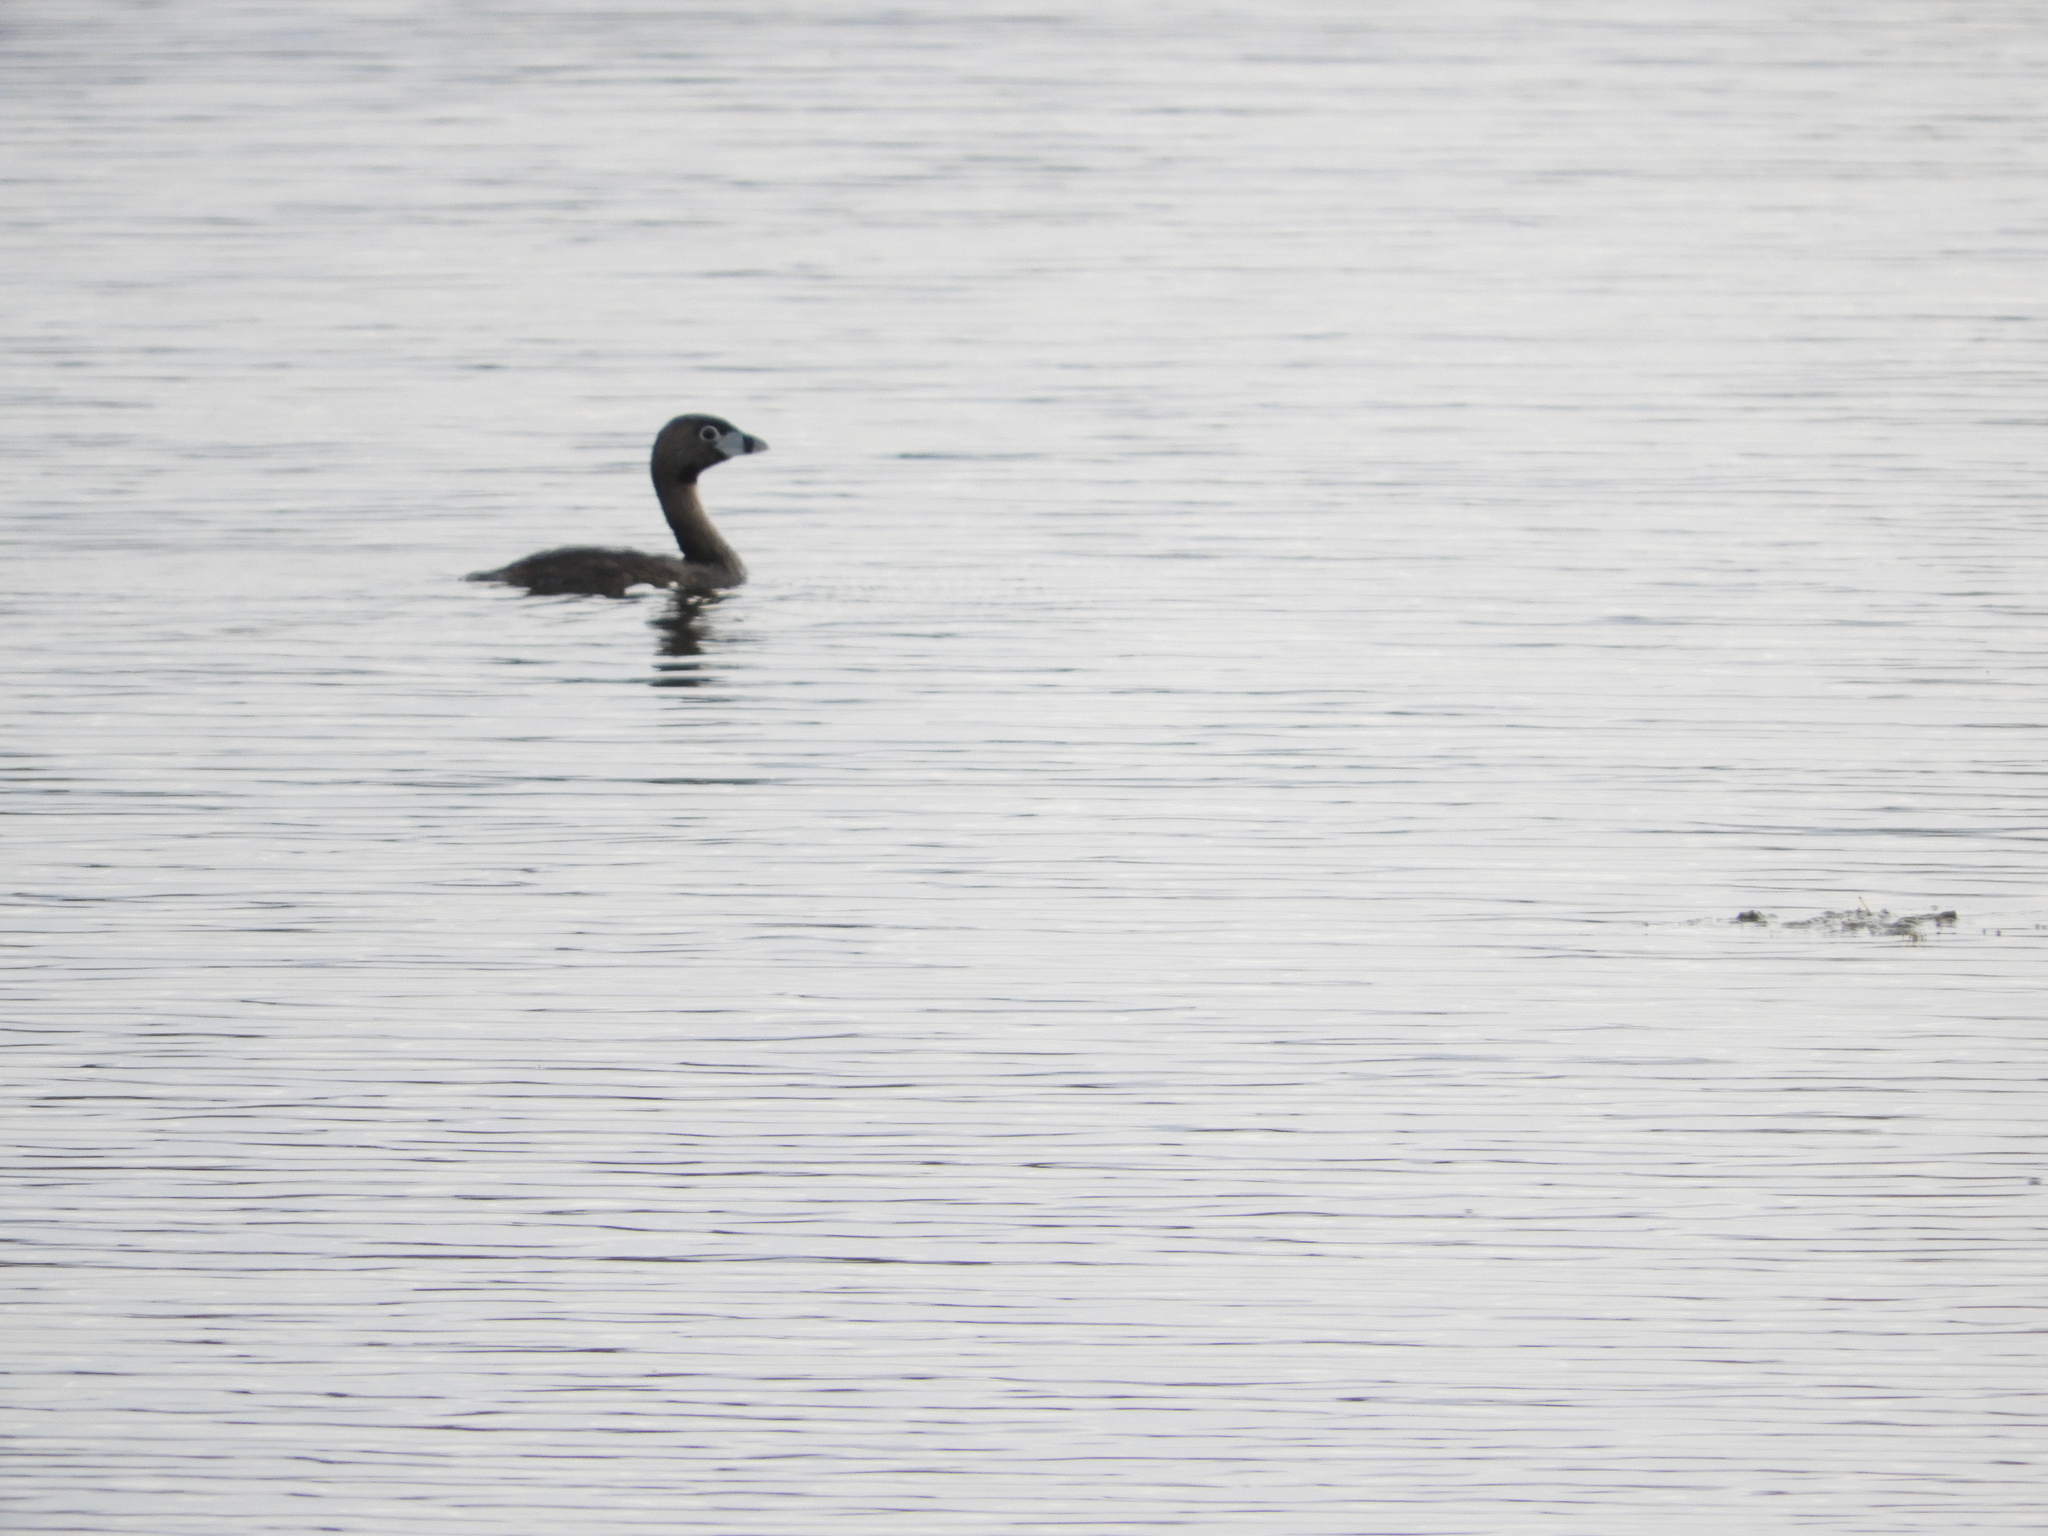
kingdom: Animalia
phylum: Chordata
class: Aves
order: Podicipediformes
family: Podicipedidae
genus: Podilymbus
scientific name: Podilymbus podiceps
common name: Pied-billed grebe
